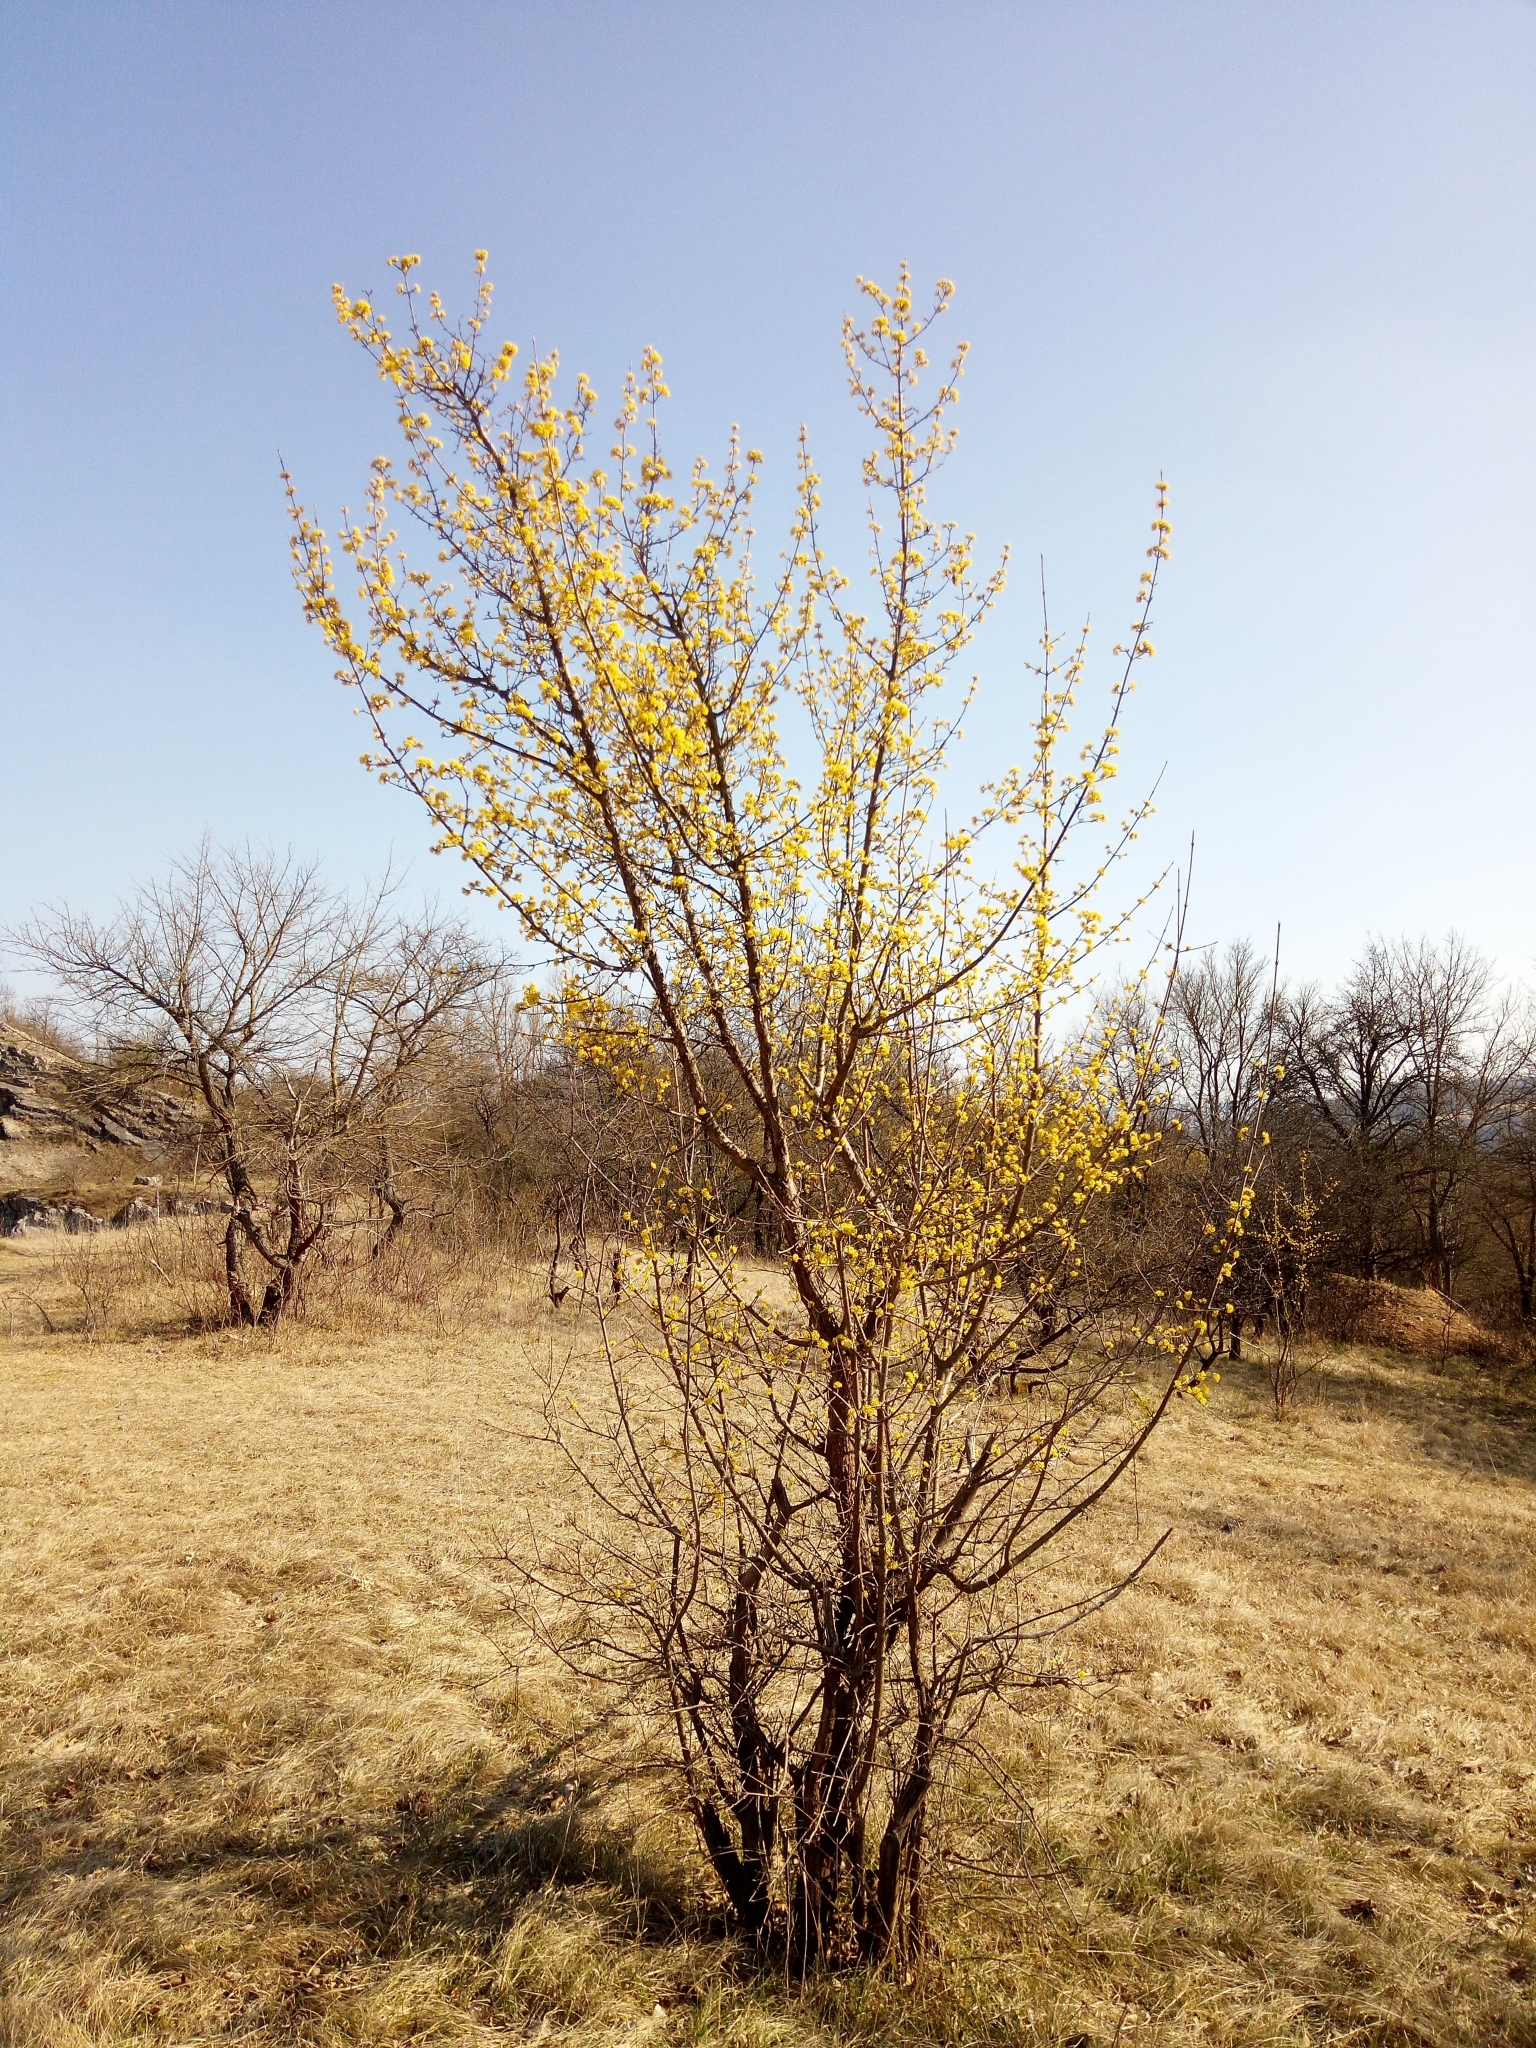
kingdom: Plantae
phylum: Tracheophyta
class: Magnoliopsida
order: Cornales
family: Cornaceae
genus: Cornus
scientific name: Cornus mas
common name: Cornelian-cherry
